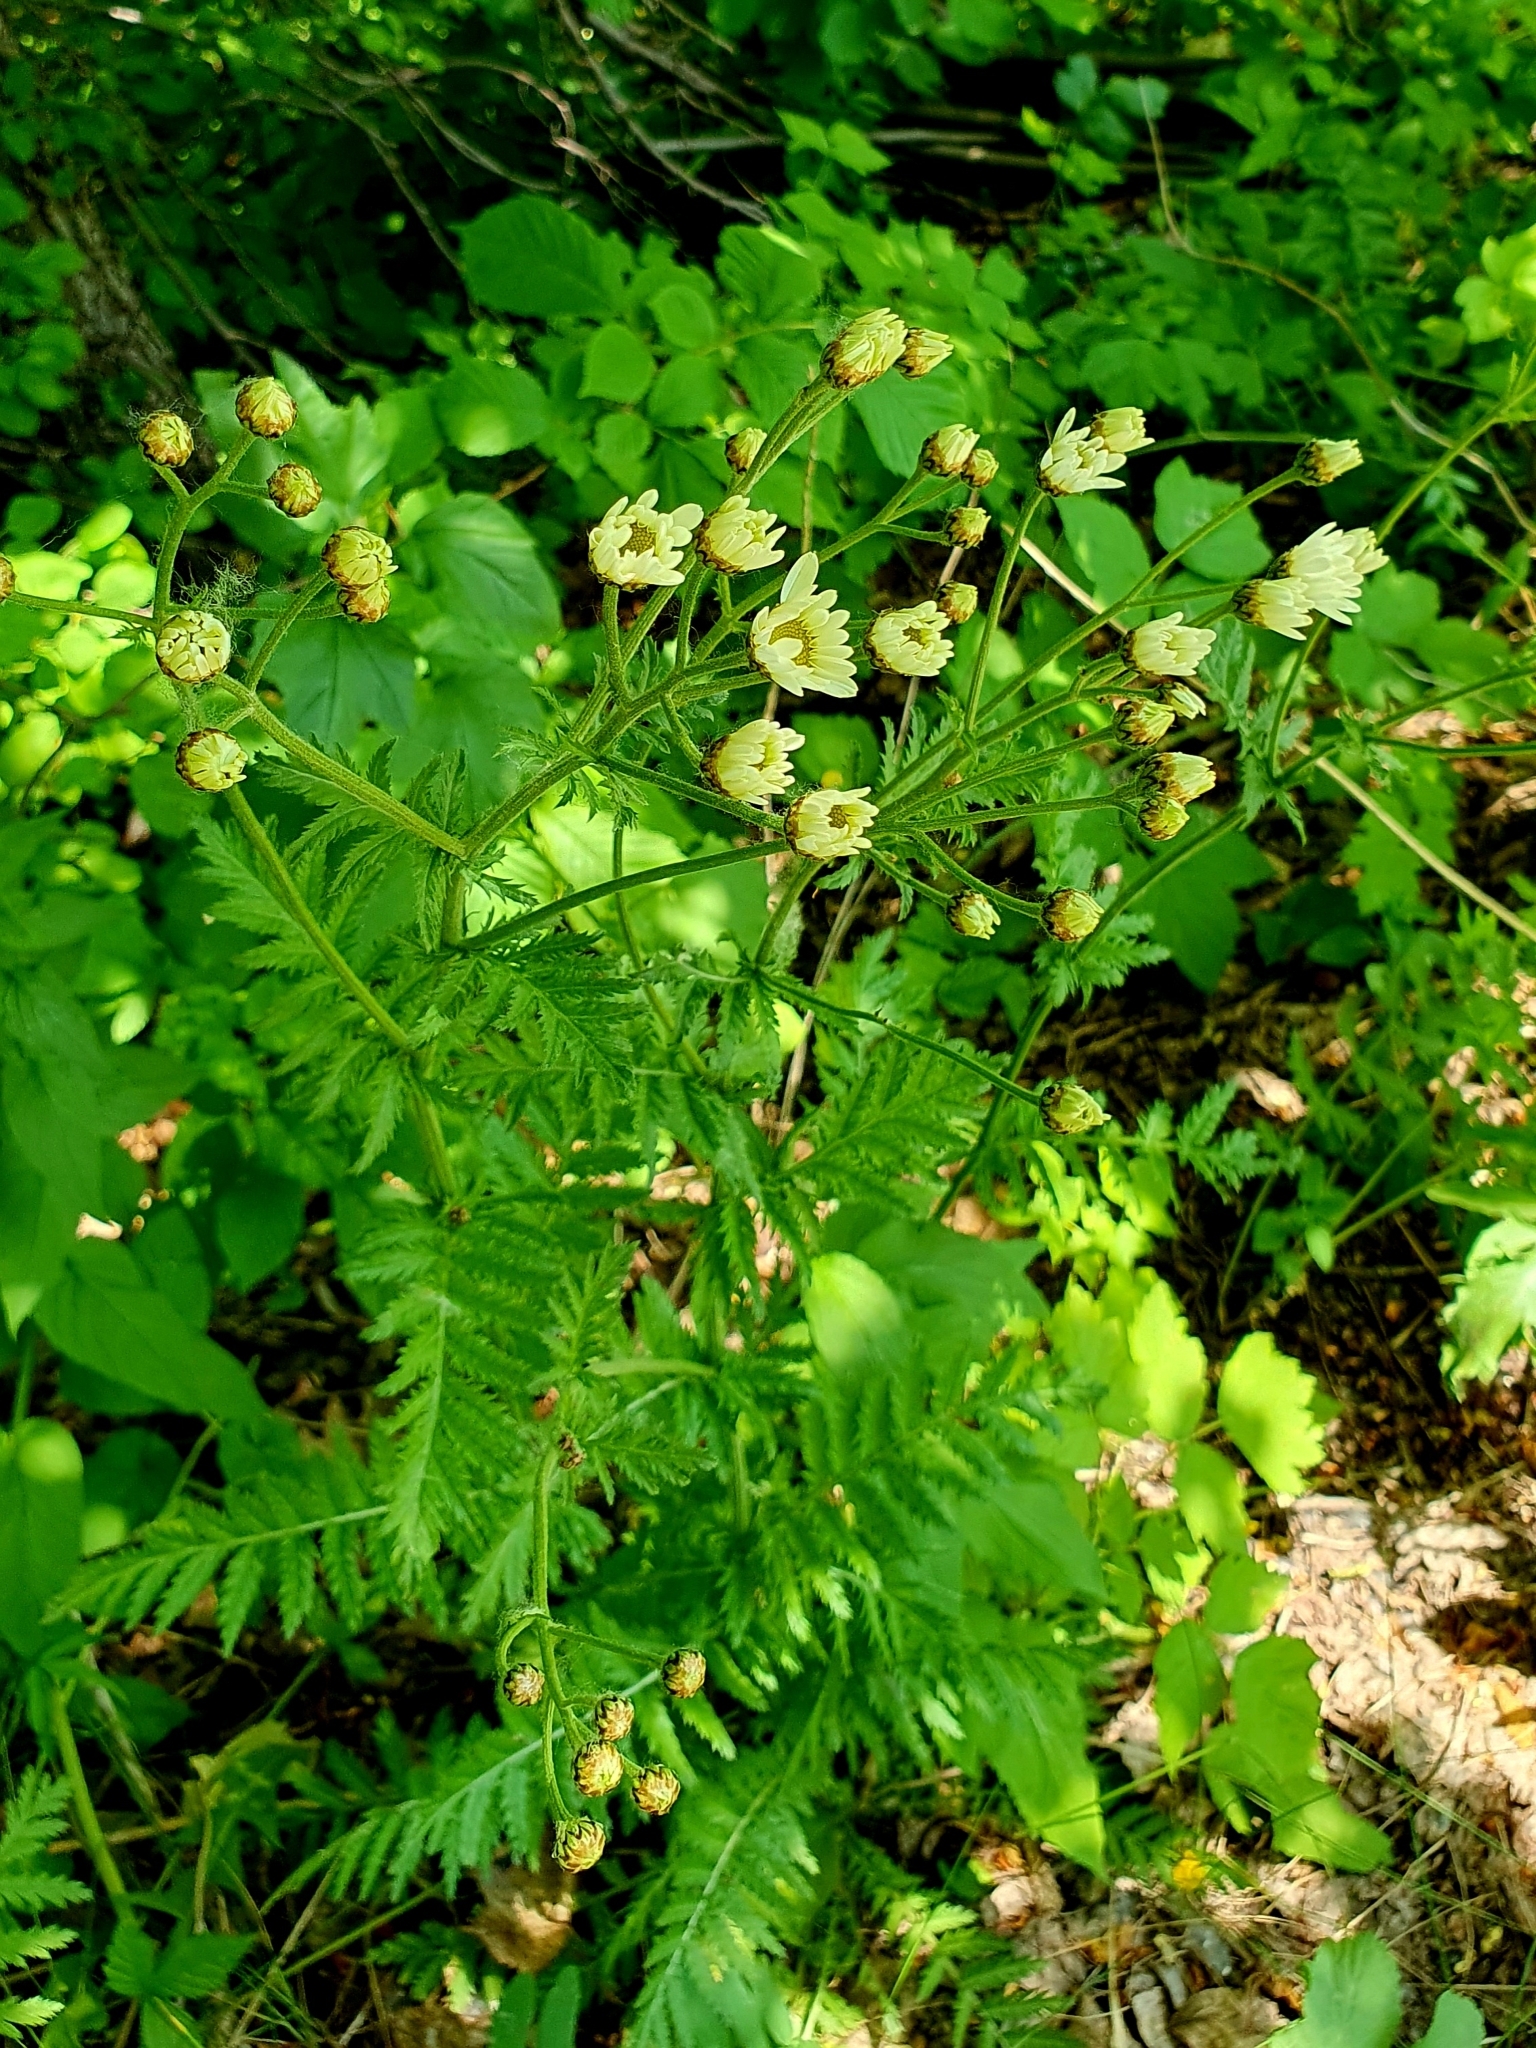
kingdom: Plantae
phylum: Tracheophyta
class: Magnoliopsida
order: Asterales
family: Asteraceae
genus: Tanacetum
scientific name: Tanacetum corymbosum
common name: Scentless feverfew
